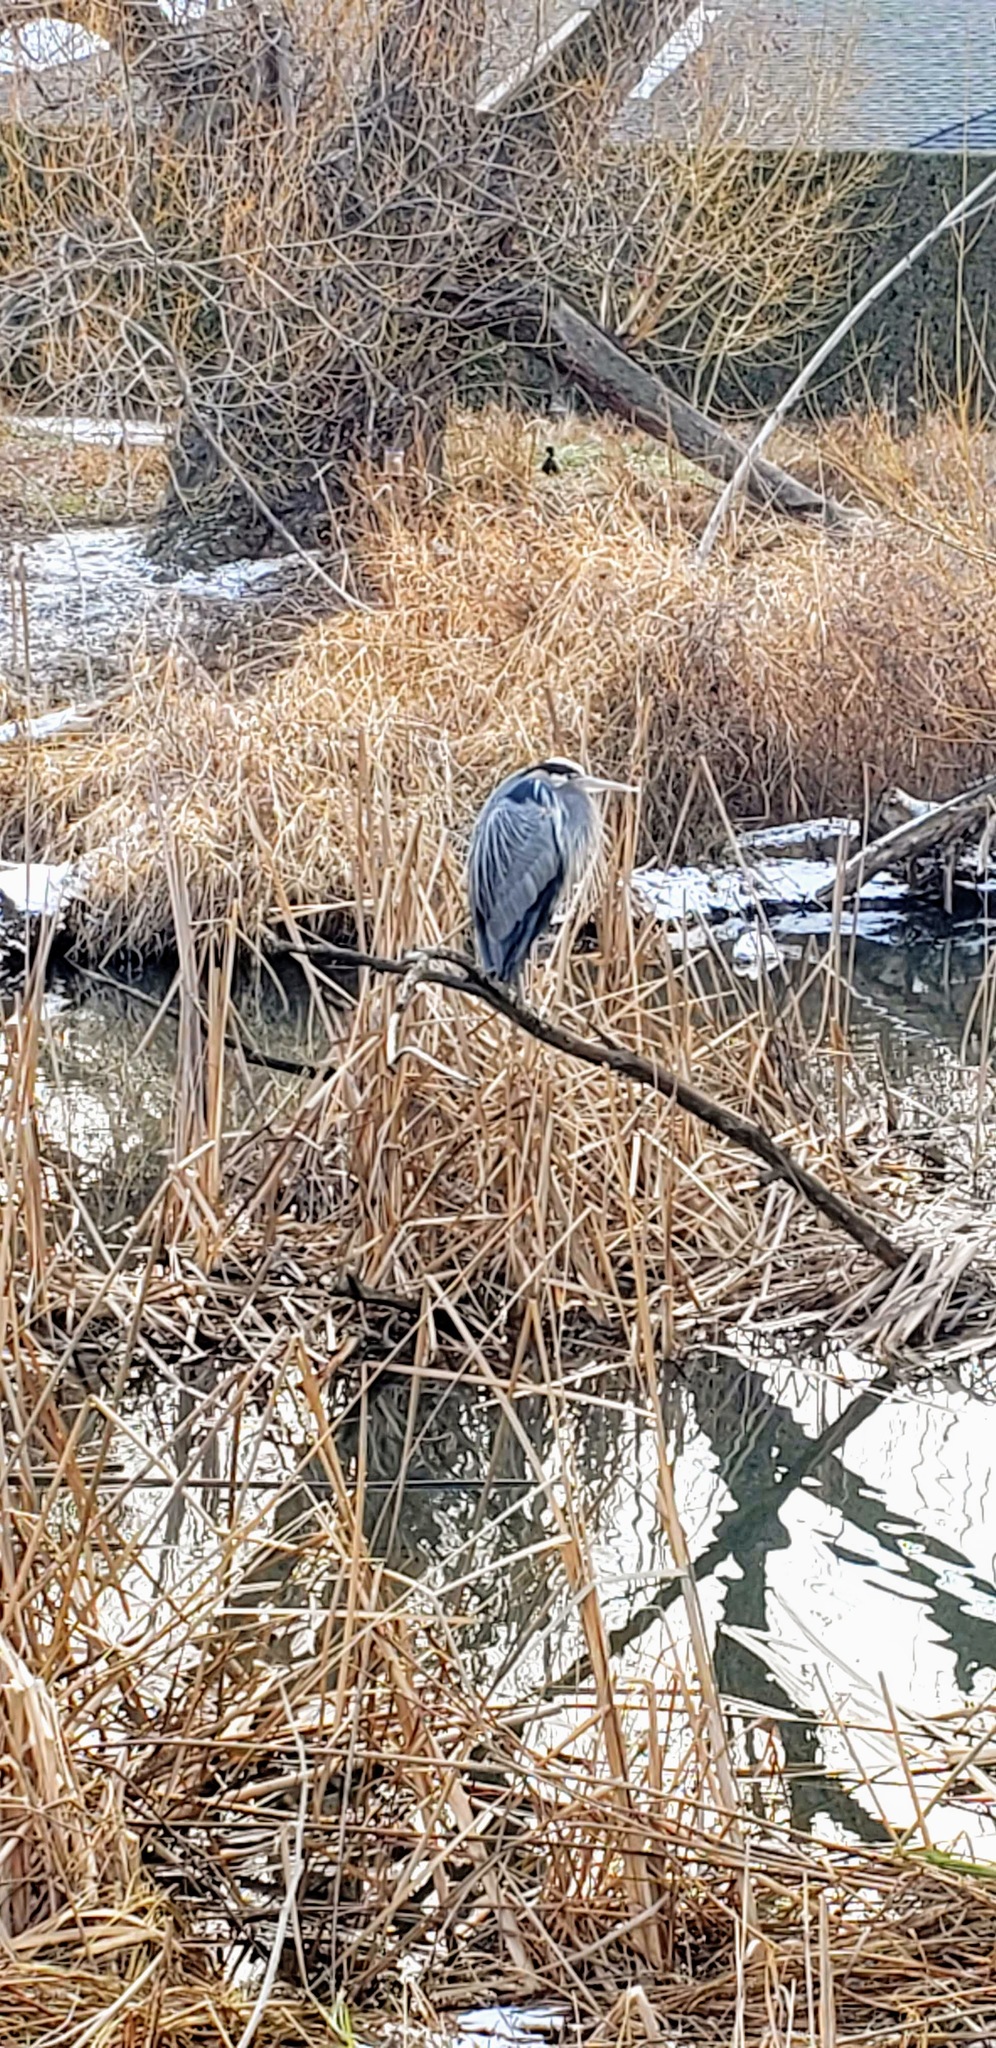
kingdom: Animalia
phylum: Chordata
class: Aves
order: Pelecaniformes
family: Ardeidae
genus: Ardea
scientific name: Ardea herodias
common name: Great blue heron
